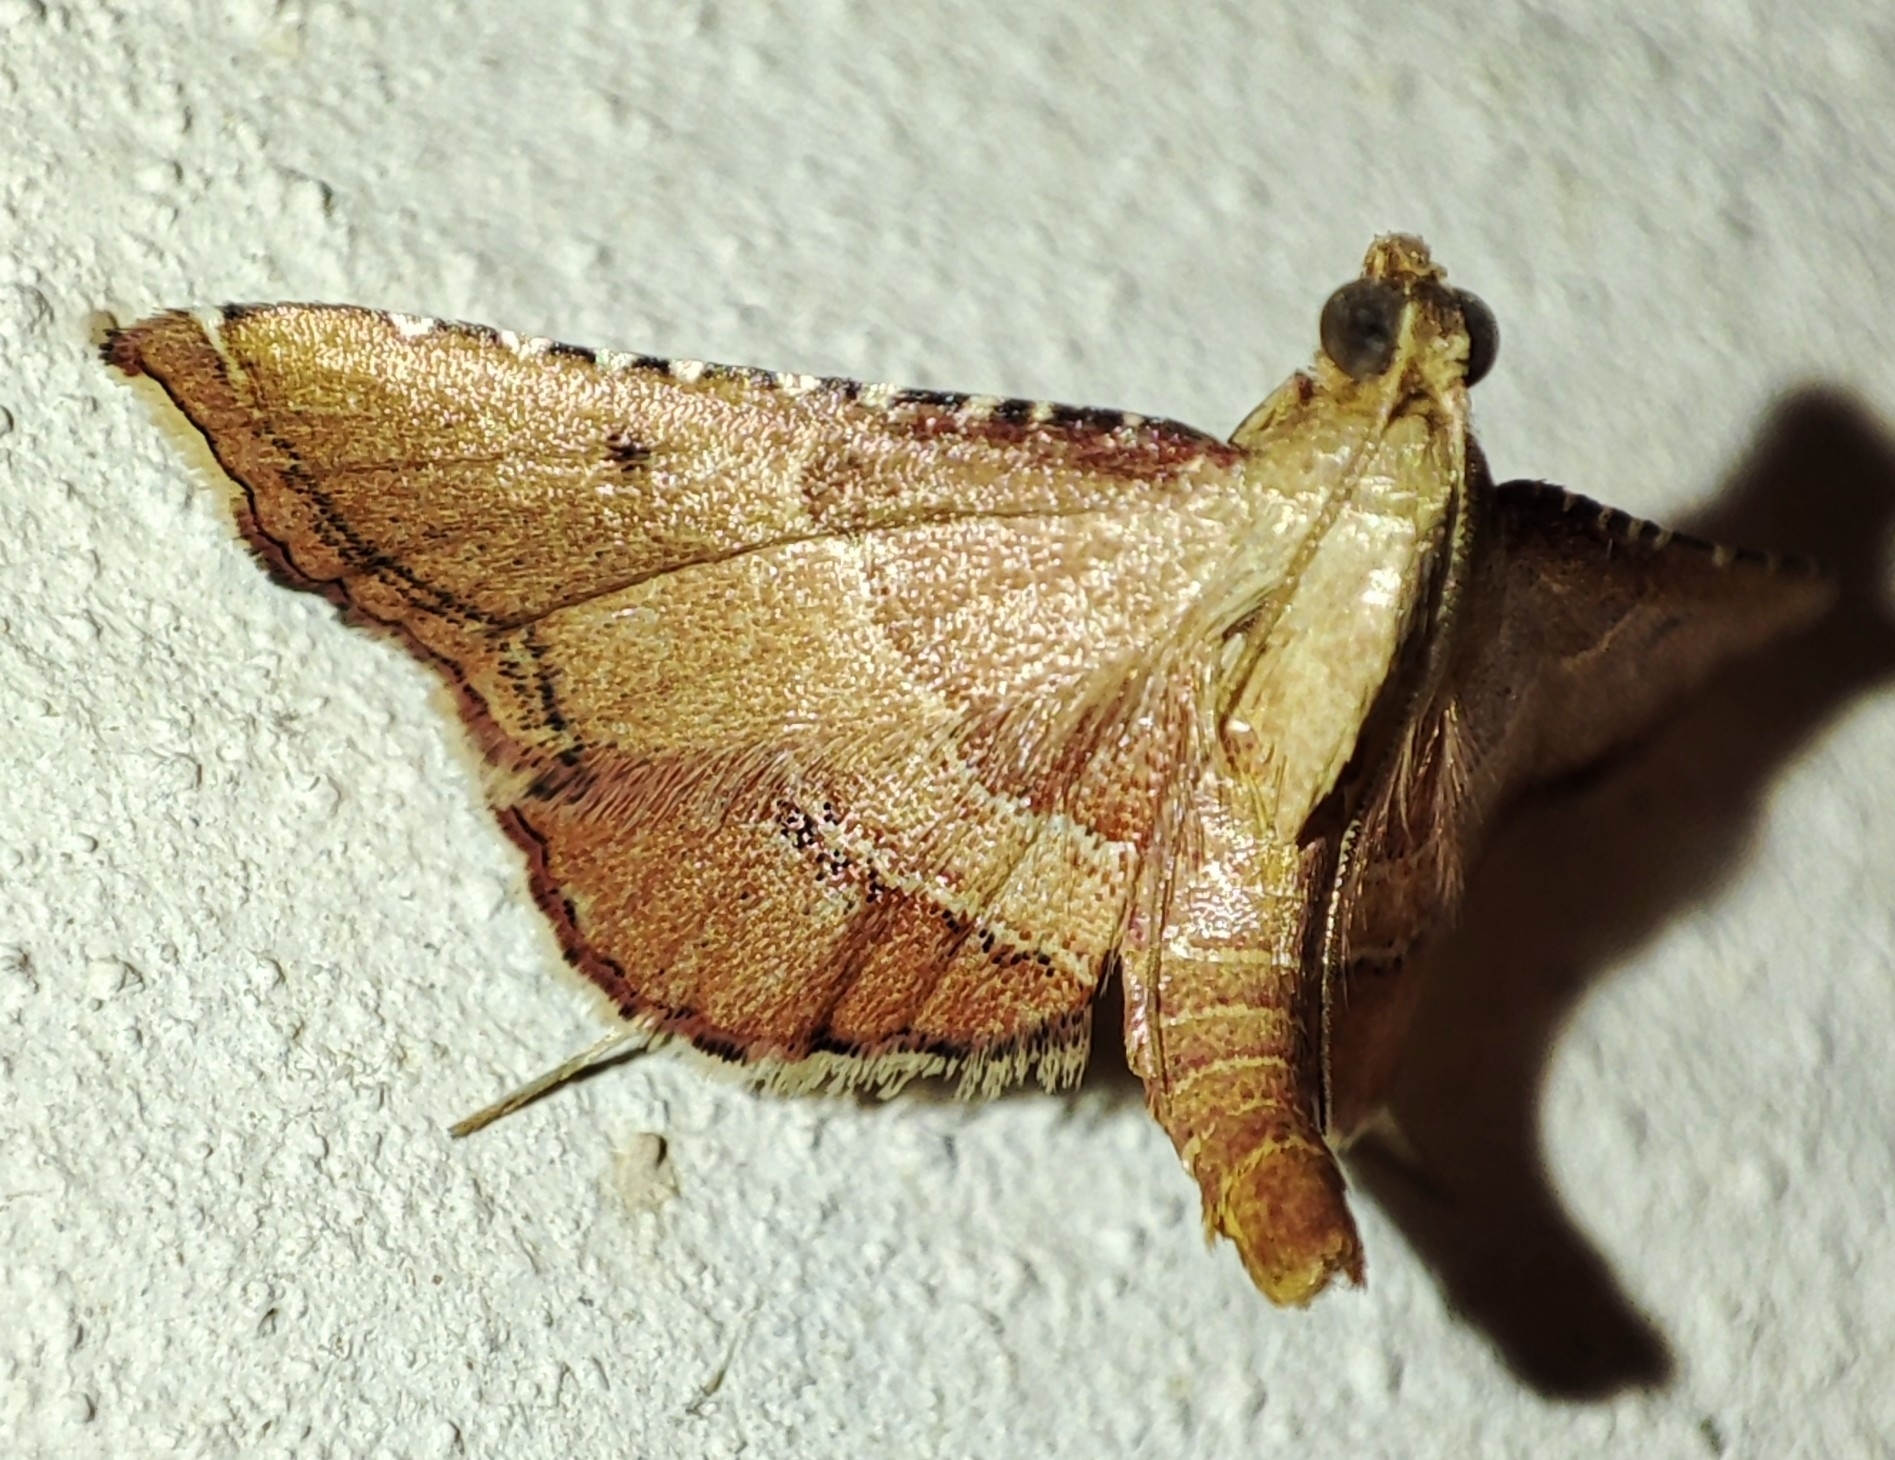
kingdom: Animalia
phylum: Arthropoda
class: Insecta
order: Lepidoptera
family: Pyralidae
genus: Endotricha
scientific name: Endotricha flammealis
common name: Rosy tabby
